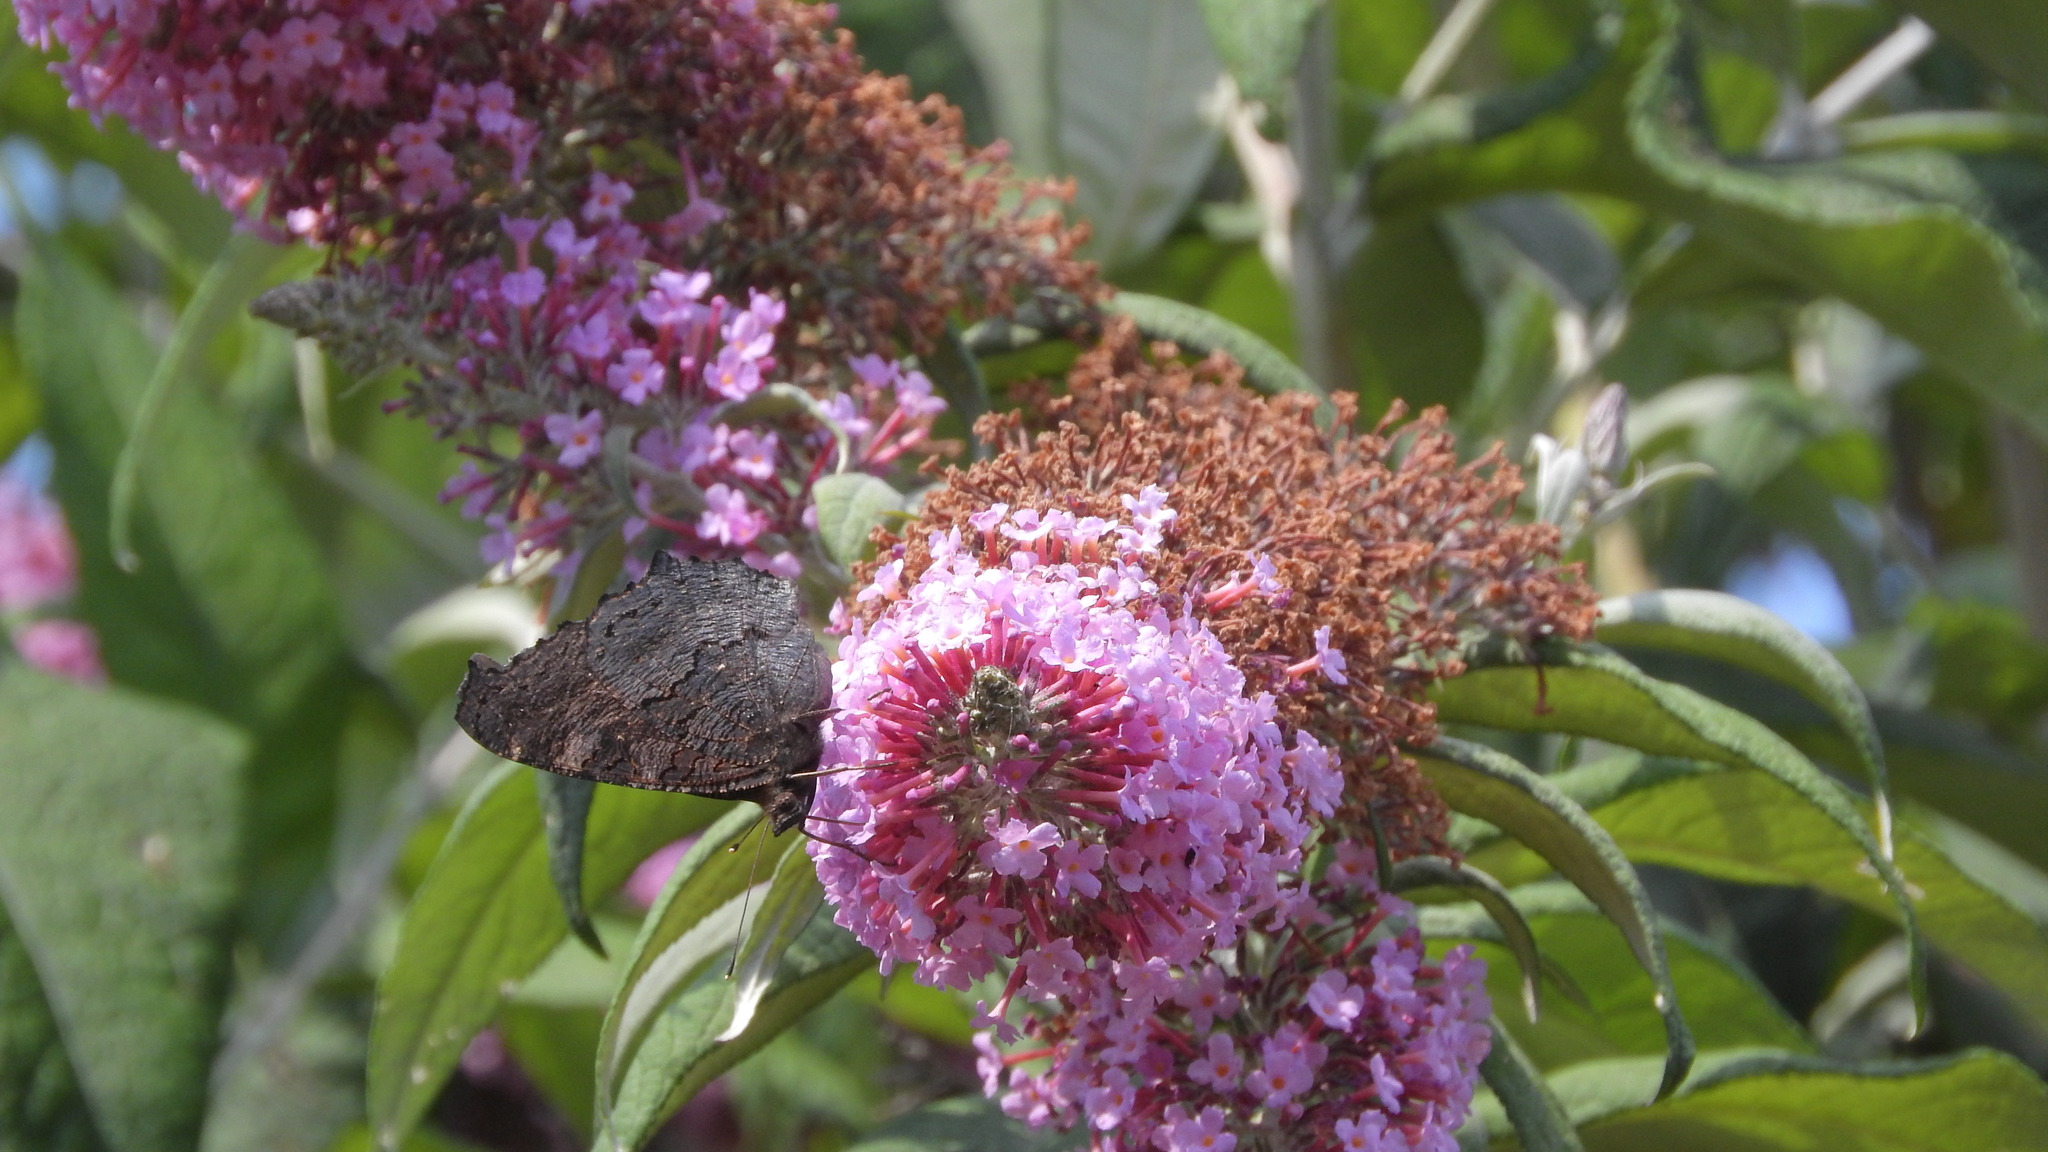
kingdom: Animalia
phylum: Arthropoda
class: Insecta
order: Lepidoptera
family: Nymphalidae
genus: Aglais
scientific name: Aglais io
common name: Peacock
